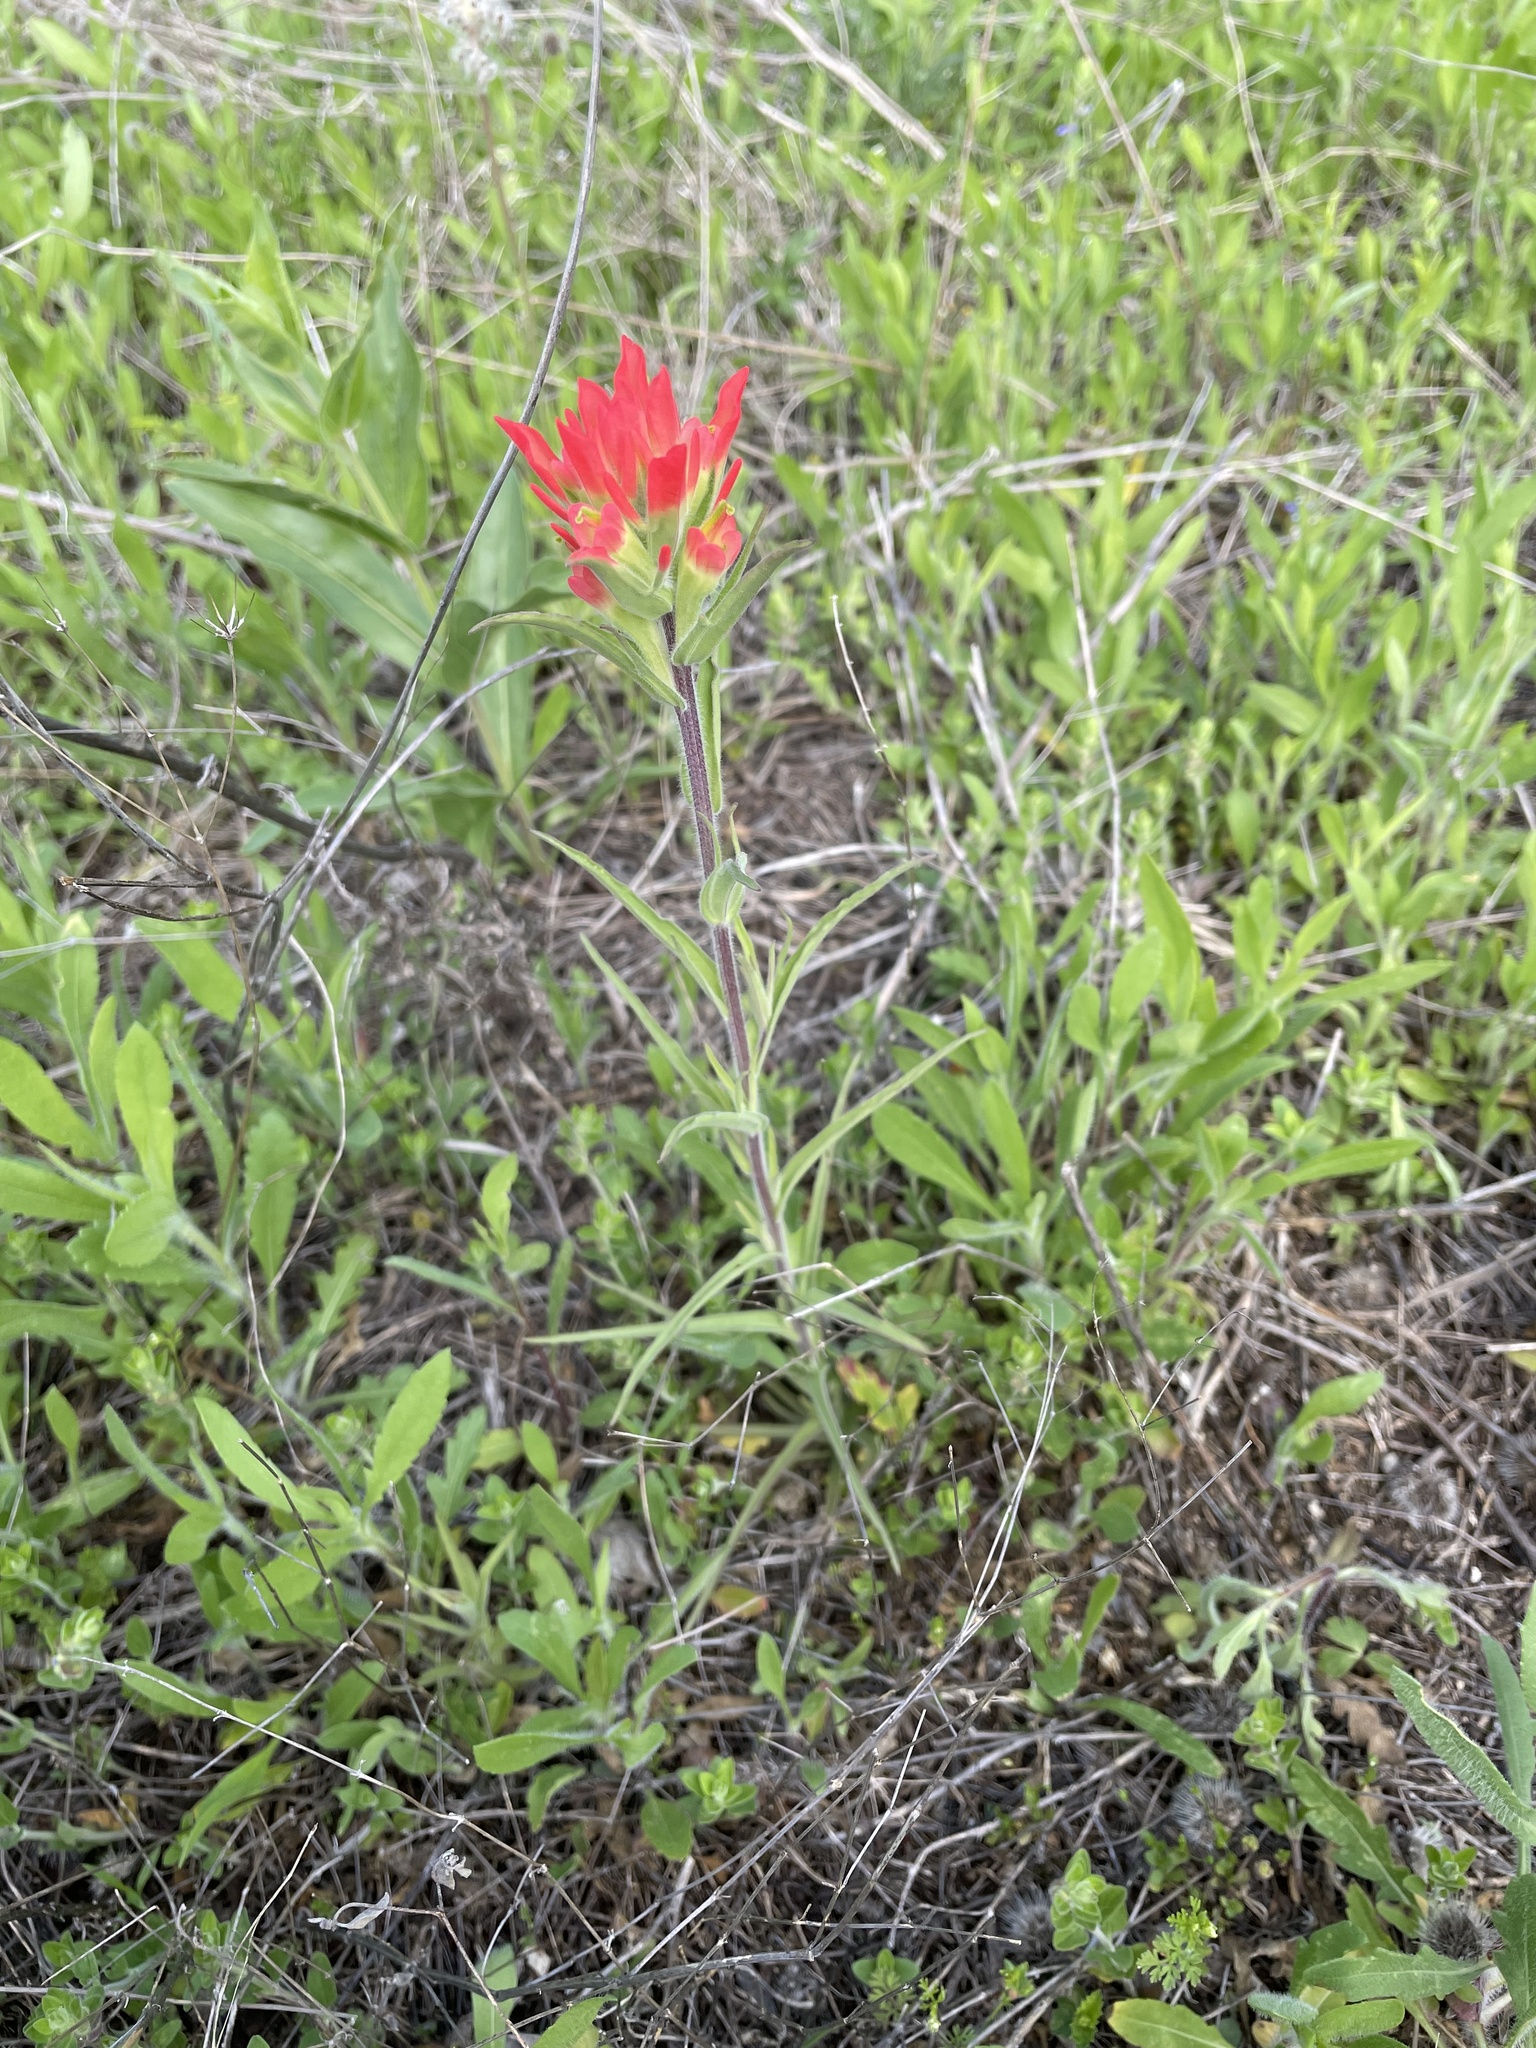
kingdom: Plantae
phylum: Tracheophyta
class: Magnoliopsida
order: Lamiales
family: Orobanchaceae
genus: Castilleja
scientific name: Castilleja indivisa
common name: Texas paintbrush
